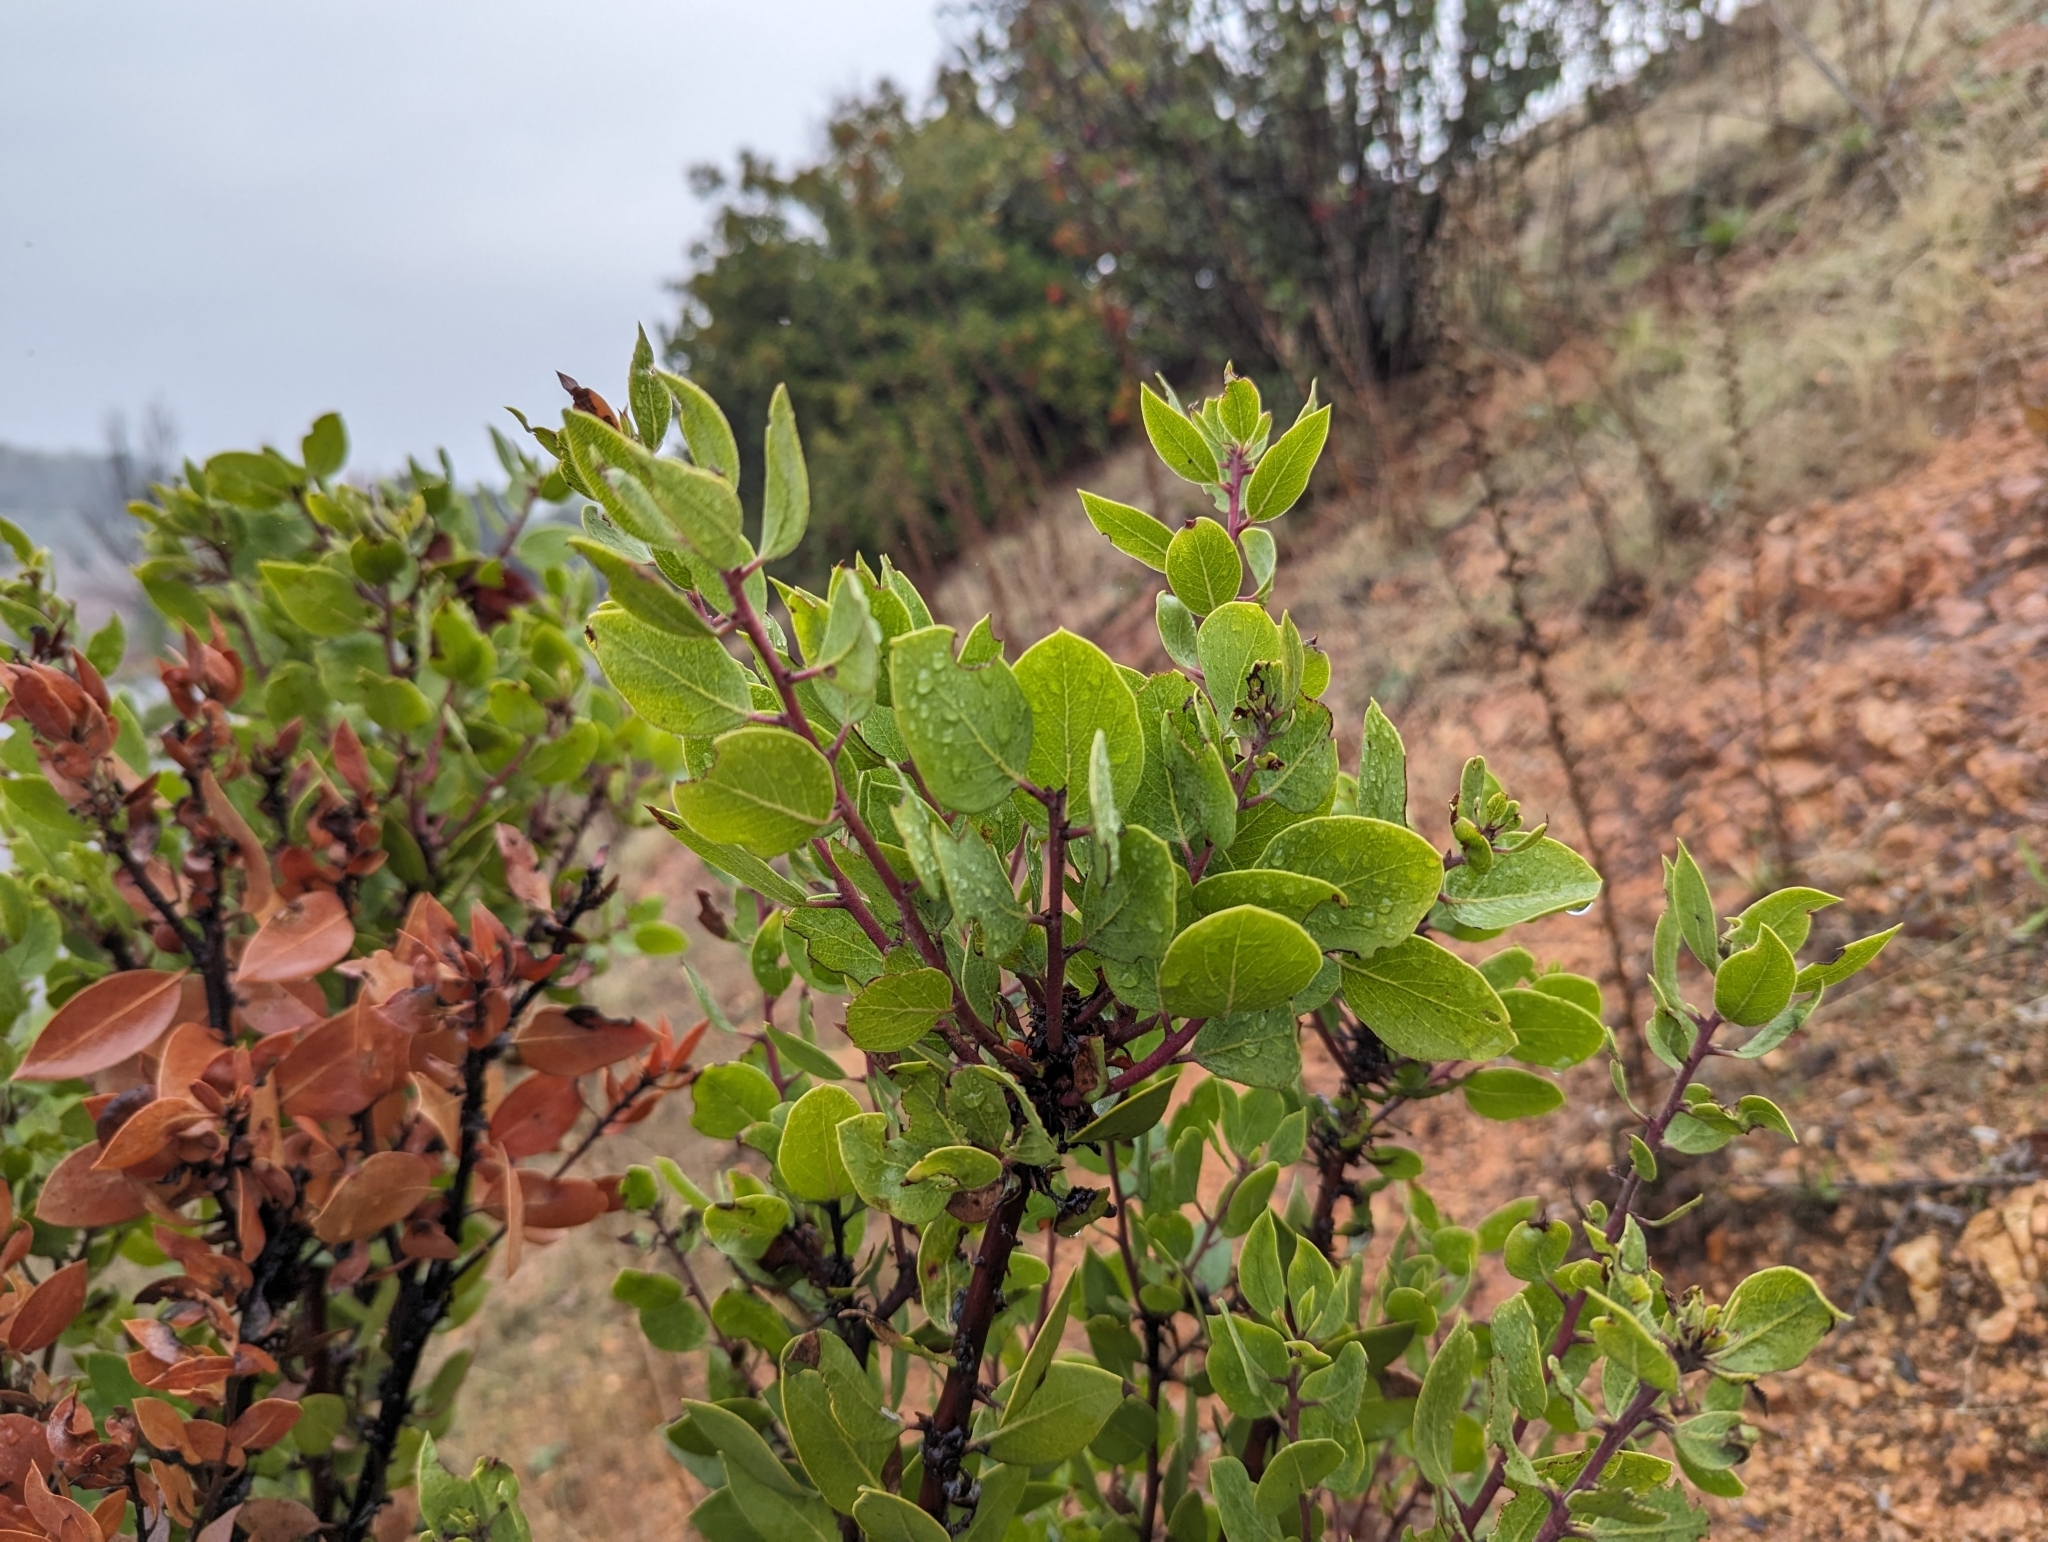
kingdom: Plantae
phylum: Tracheophyta
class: Magnoliopsida
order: Ericales
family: Ericaceae
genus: Arctostaphylos
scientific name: Arctostaphylos manzanita
